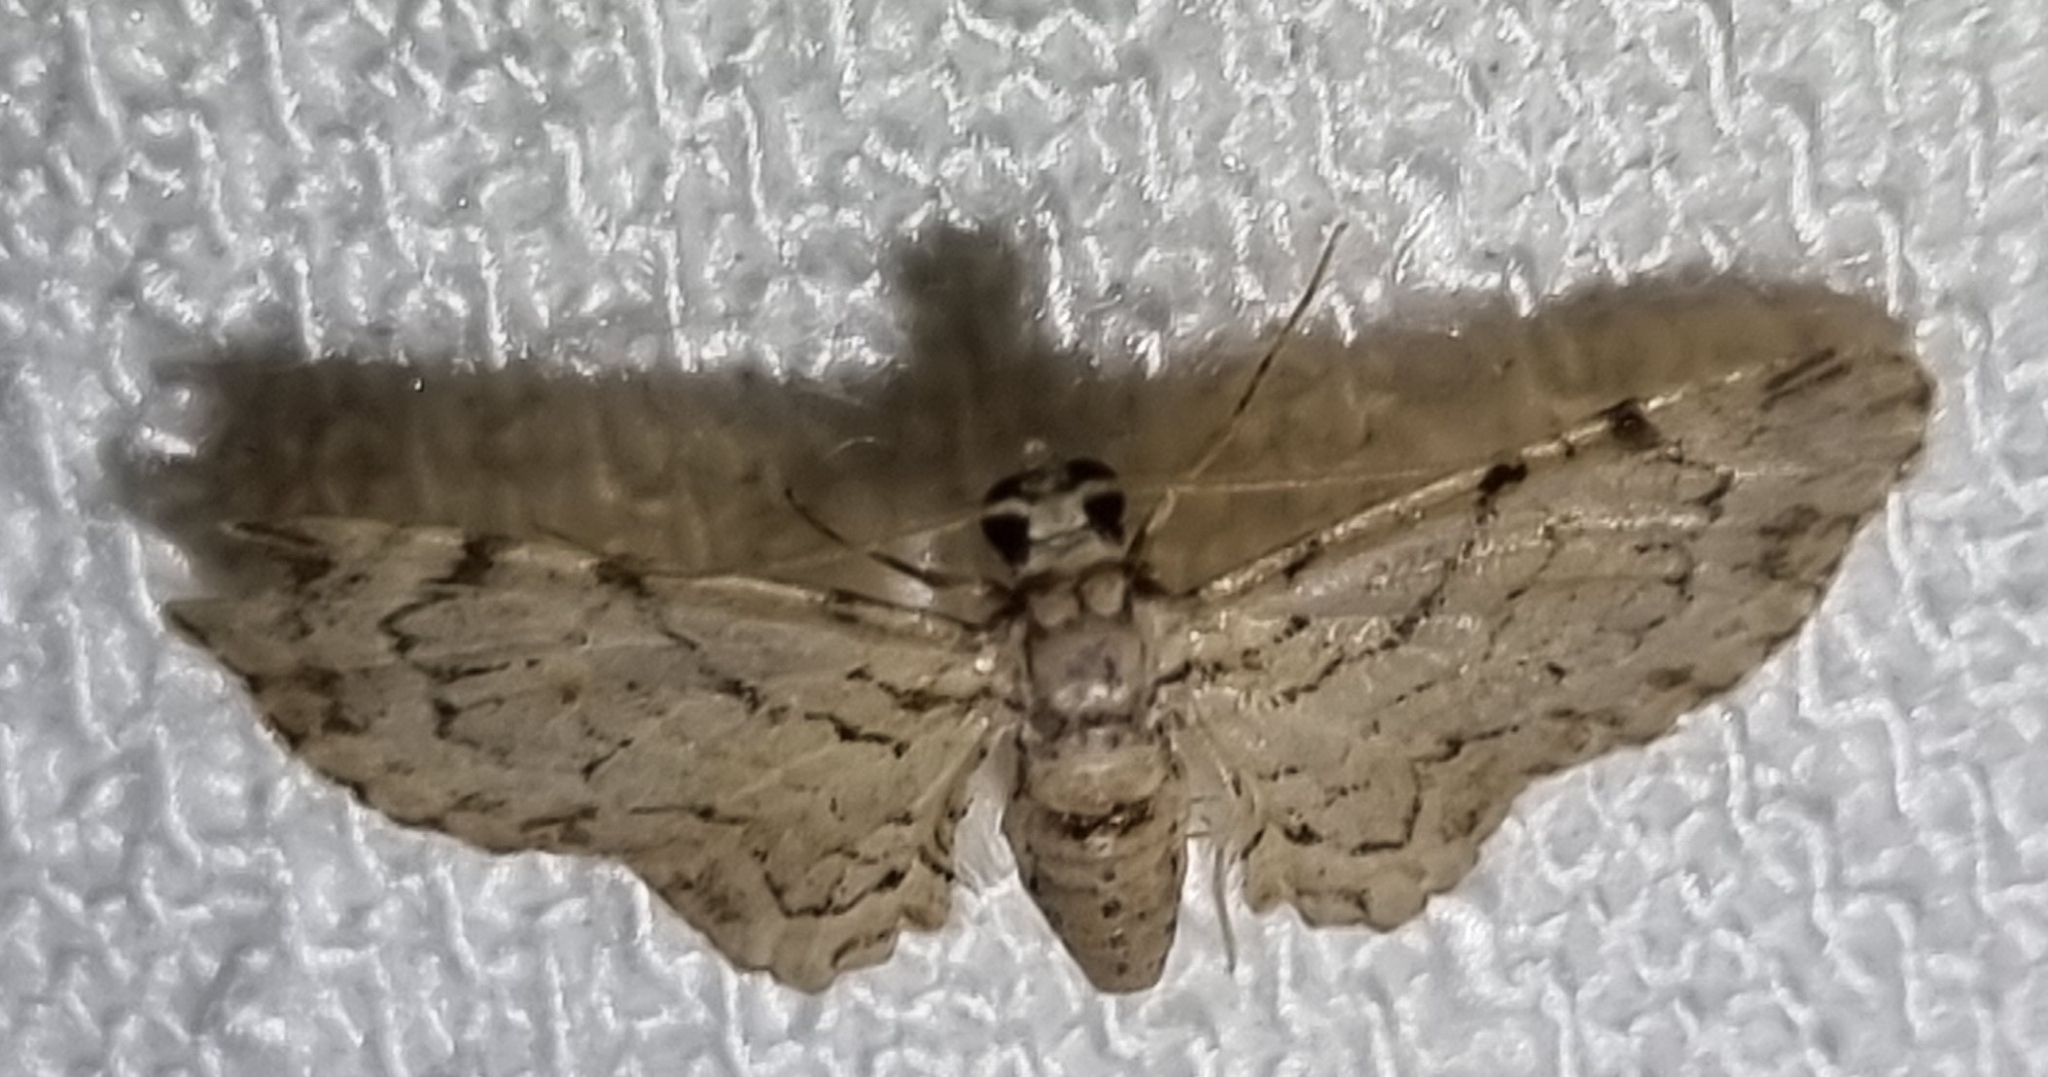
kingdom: Animalia
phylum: Arthropoda
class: Insecta
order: Lepidoptera
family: Geometridae
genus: Chloroclystis
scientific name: Chloroclystis
